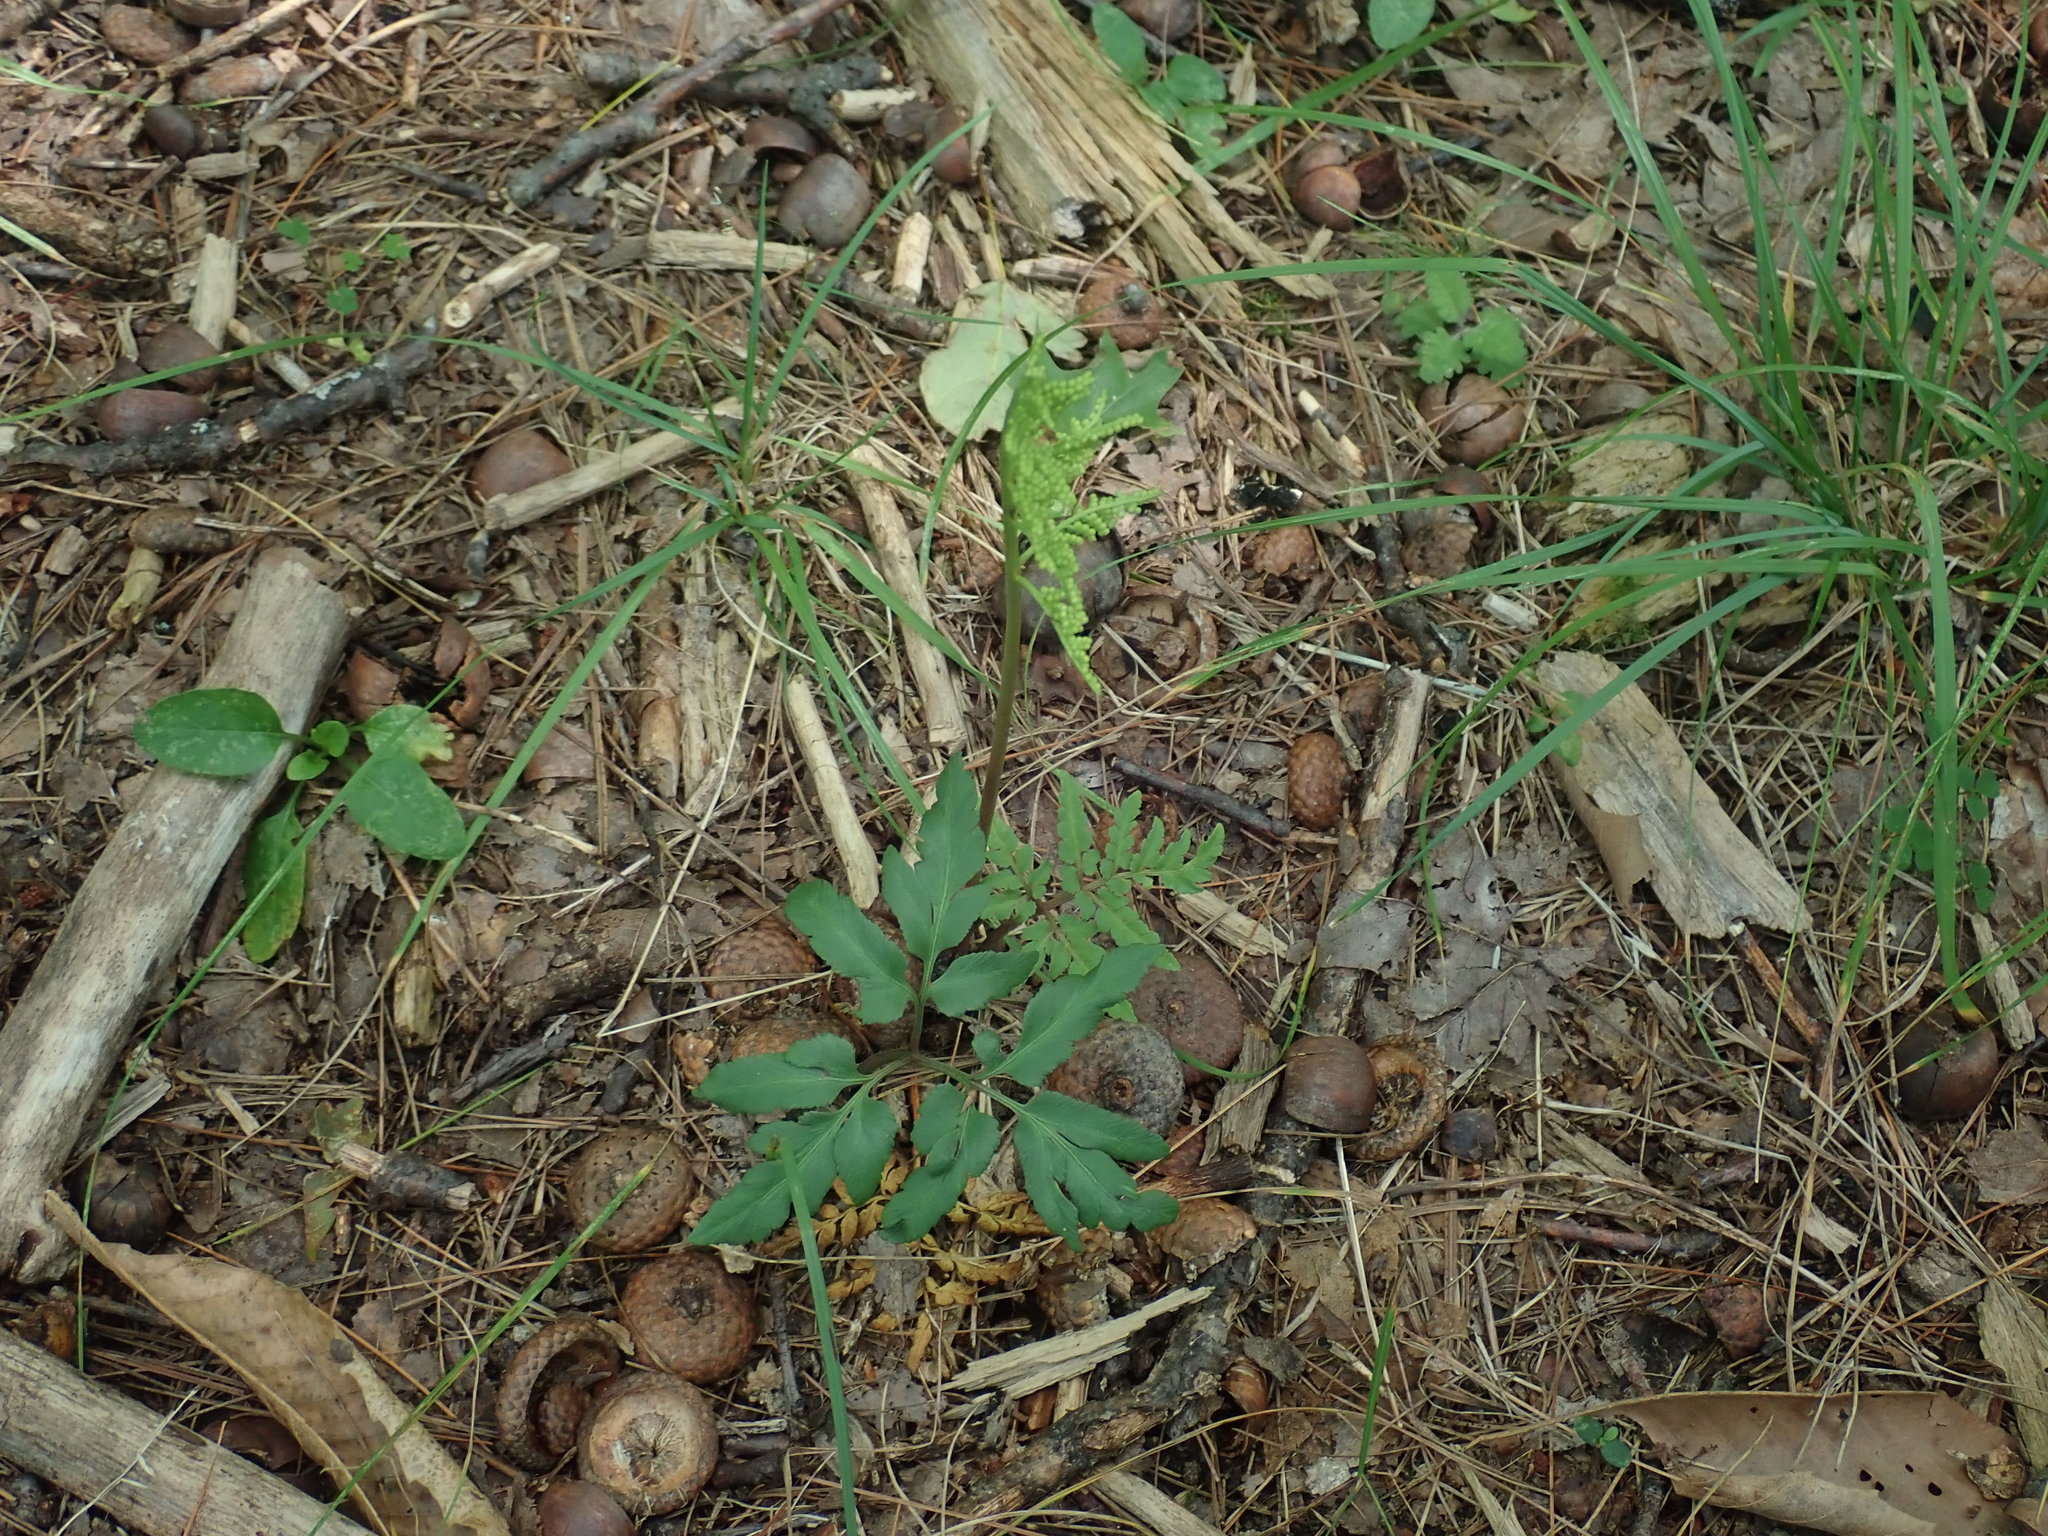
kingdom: Plantae
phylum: Tracheophyta
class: Polypodiopsida
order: Ophioglossales
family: Ophioglossaceae
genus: Sceptridium
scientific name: Sceptridium dissectum
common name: Cut-leaved grapefern
